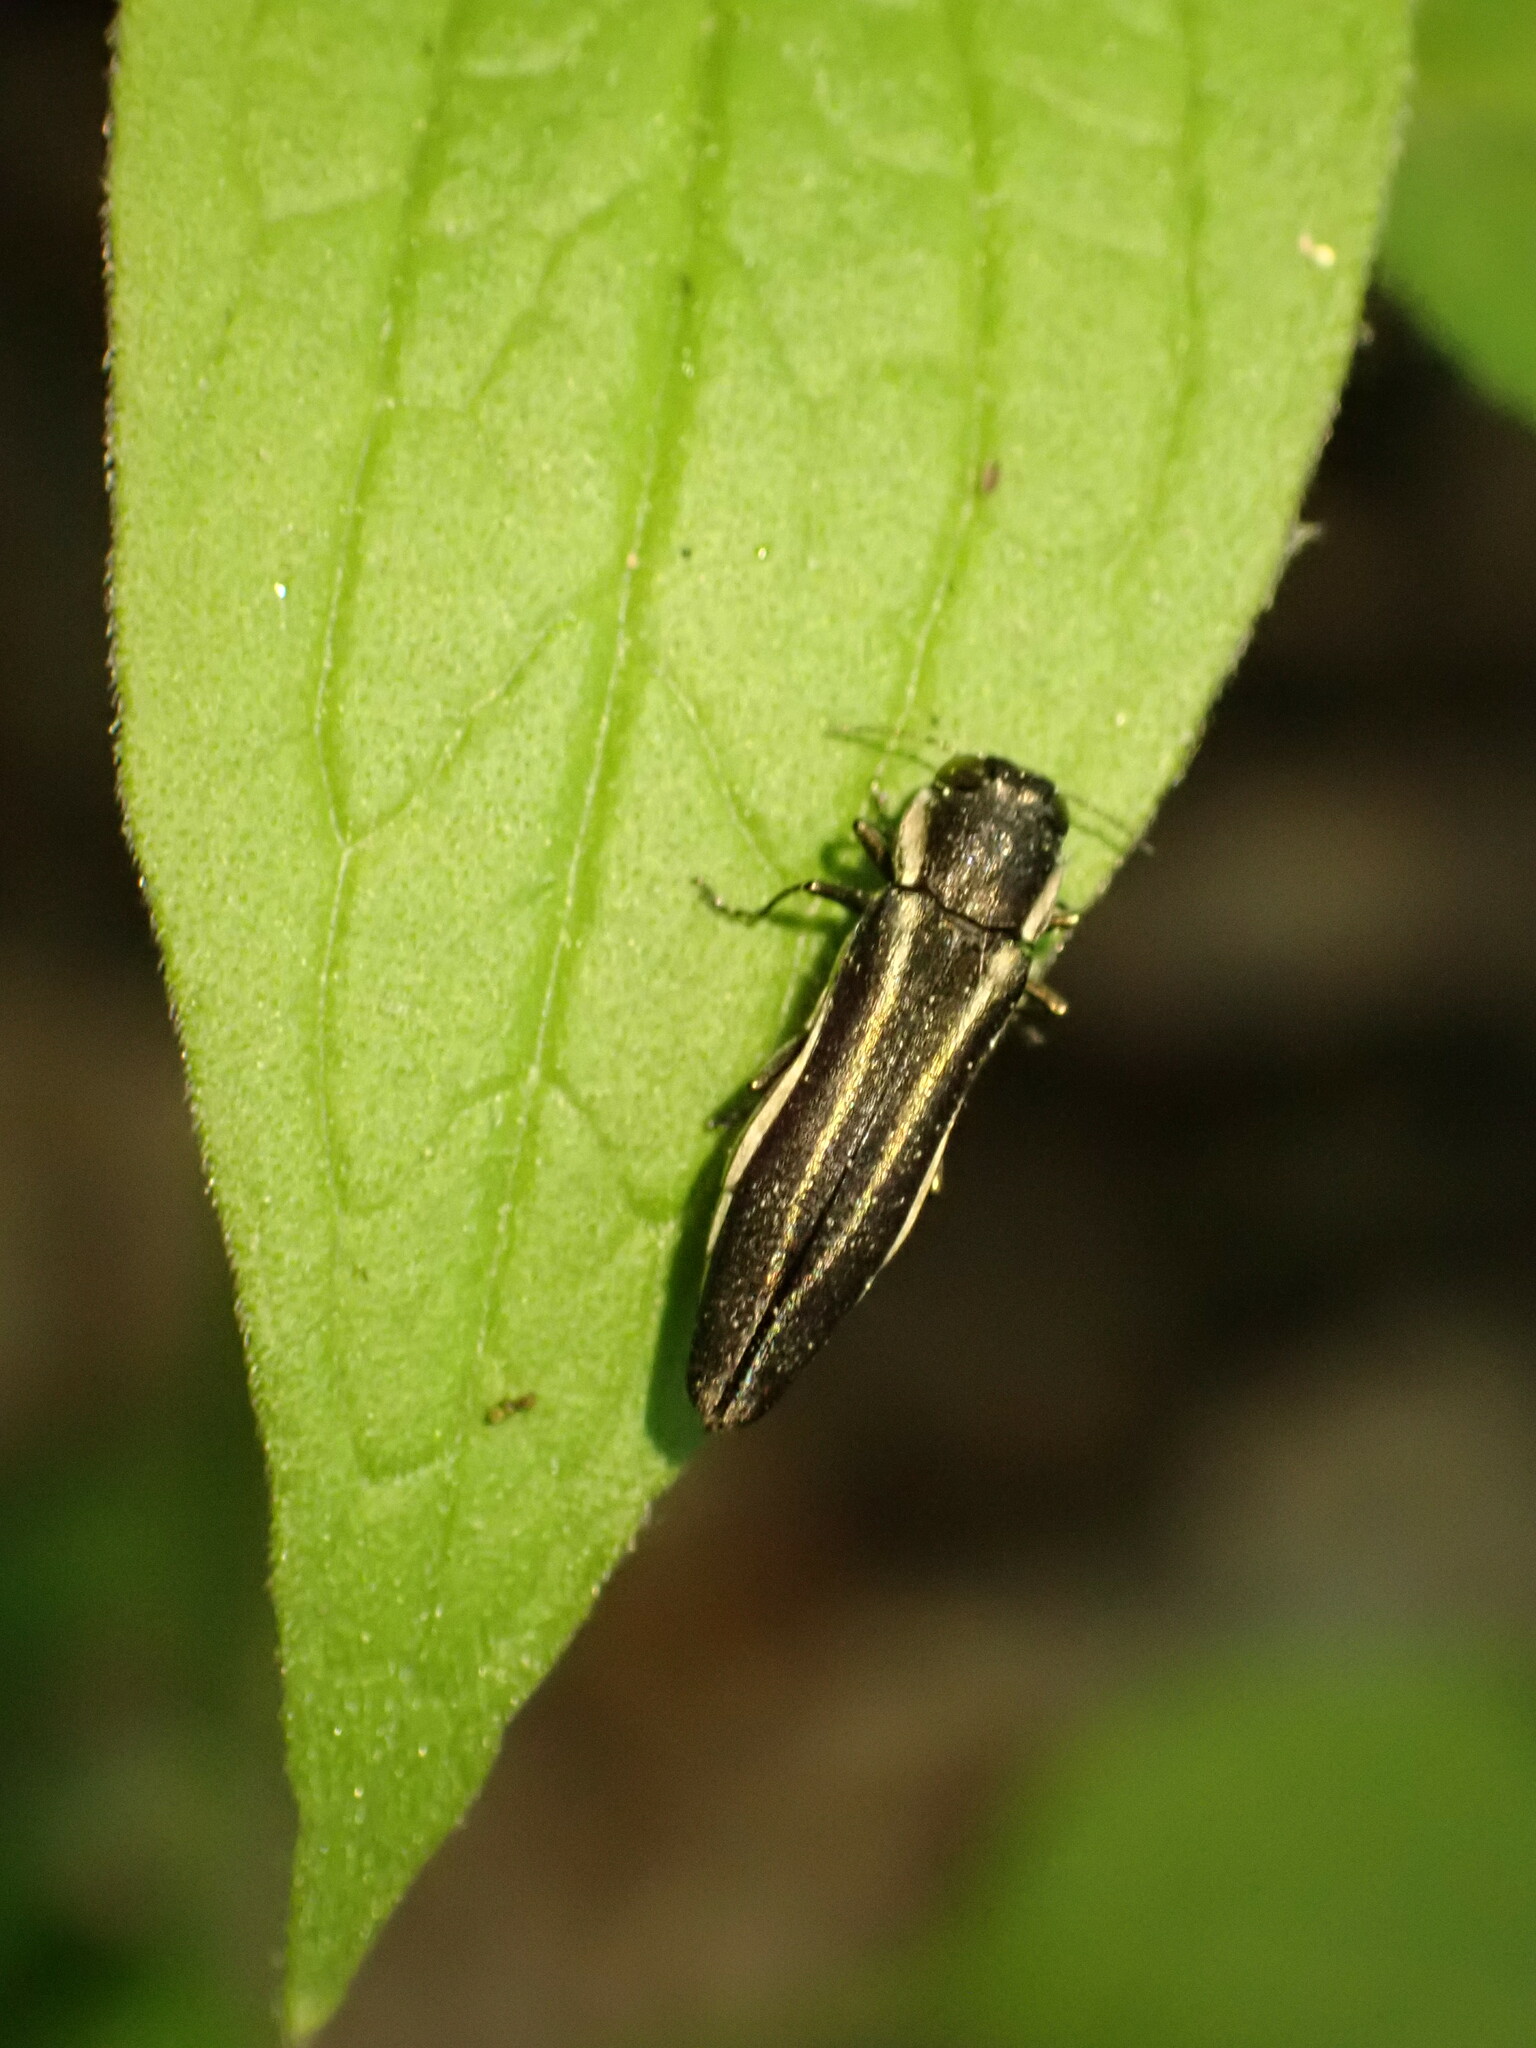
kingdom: Animalia
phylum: Arthropoda
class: Insecta
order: Coleoptera
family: Buprestidae
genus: Agrilus
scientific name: Agrilus bilineatus
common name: Two-lined chestnut borer
